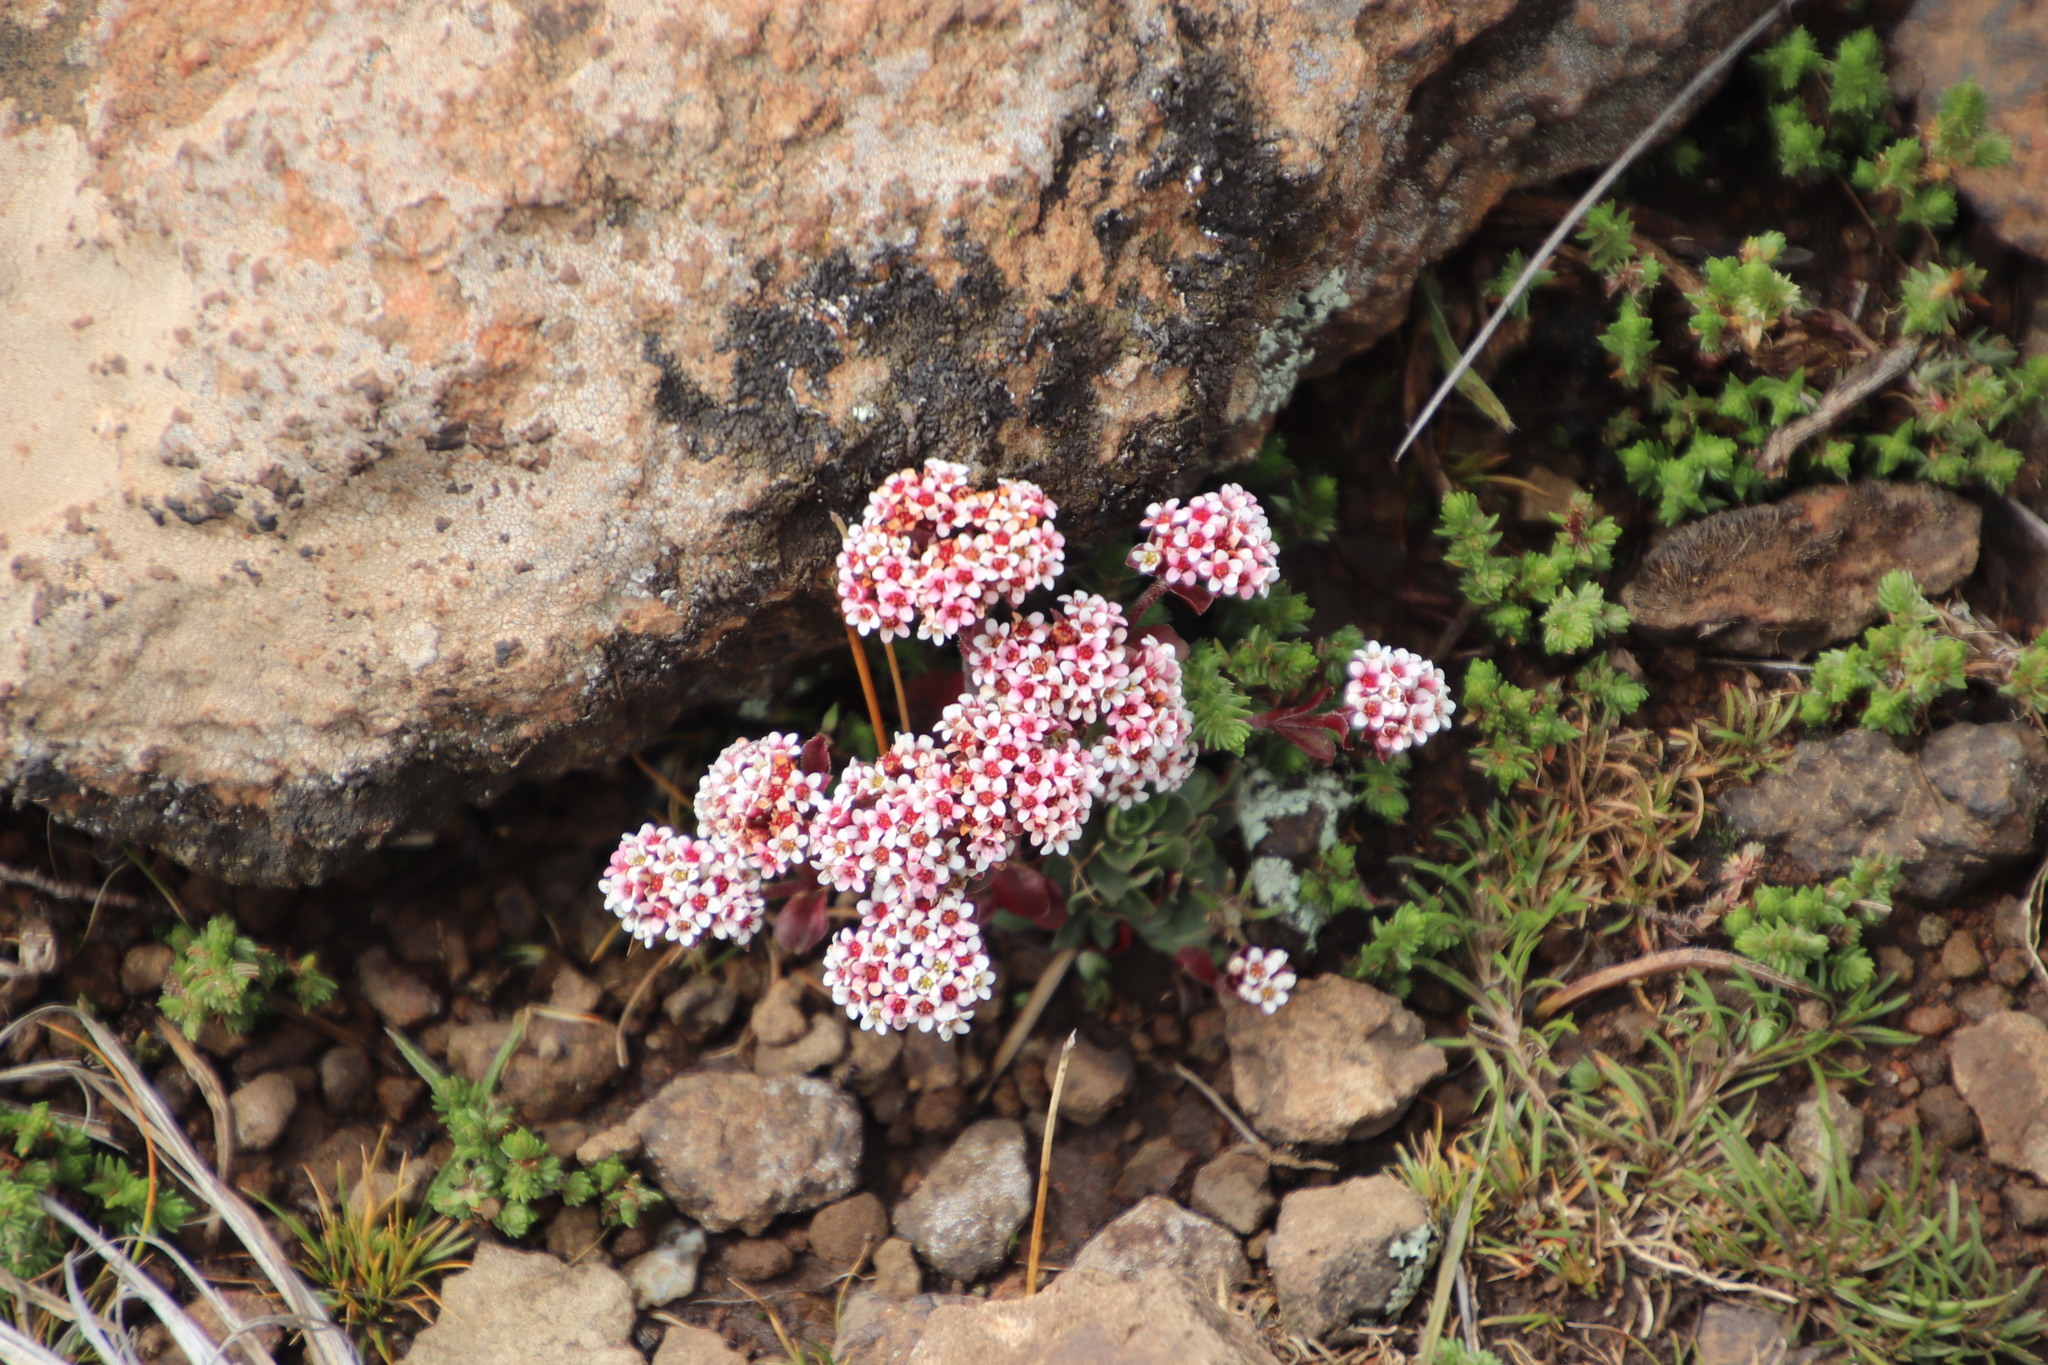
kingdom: Plantae
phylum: Tracheophyta
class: Magnoliopsida
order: Saxifragales
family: Crassulaceae
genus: Crassula
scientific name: Crassula setulosa
